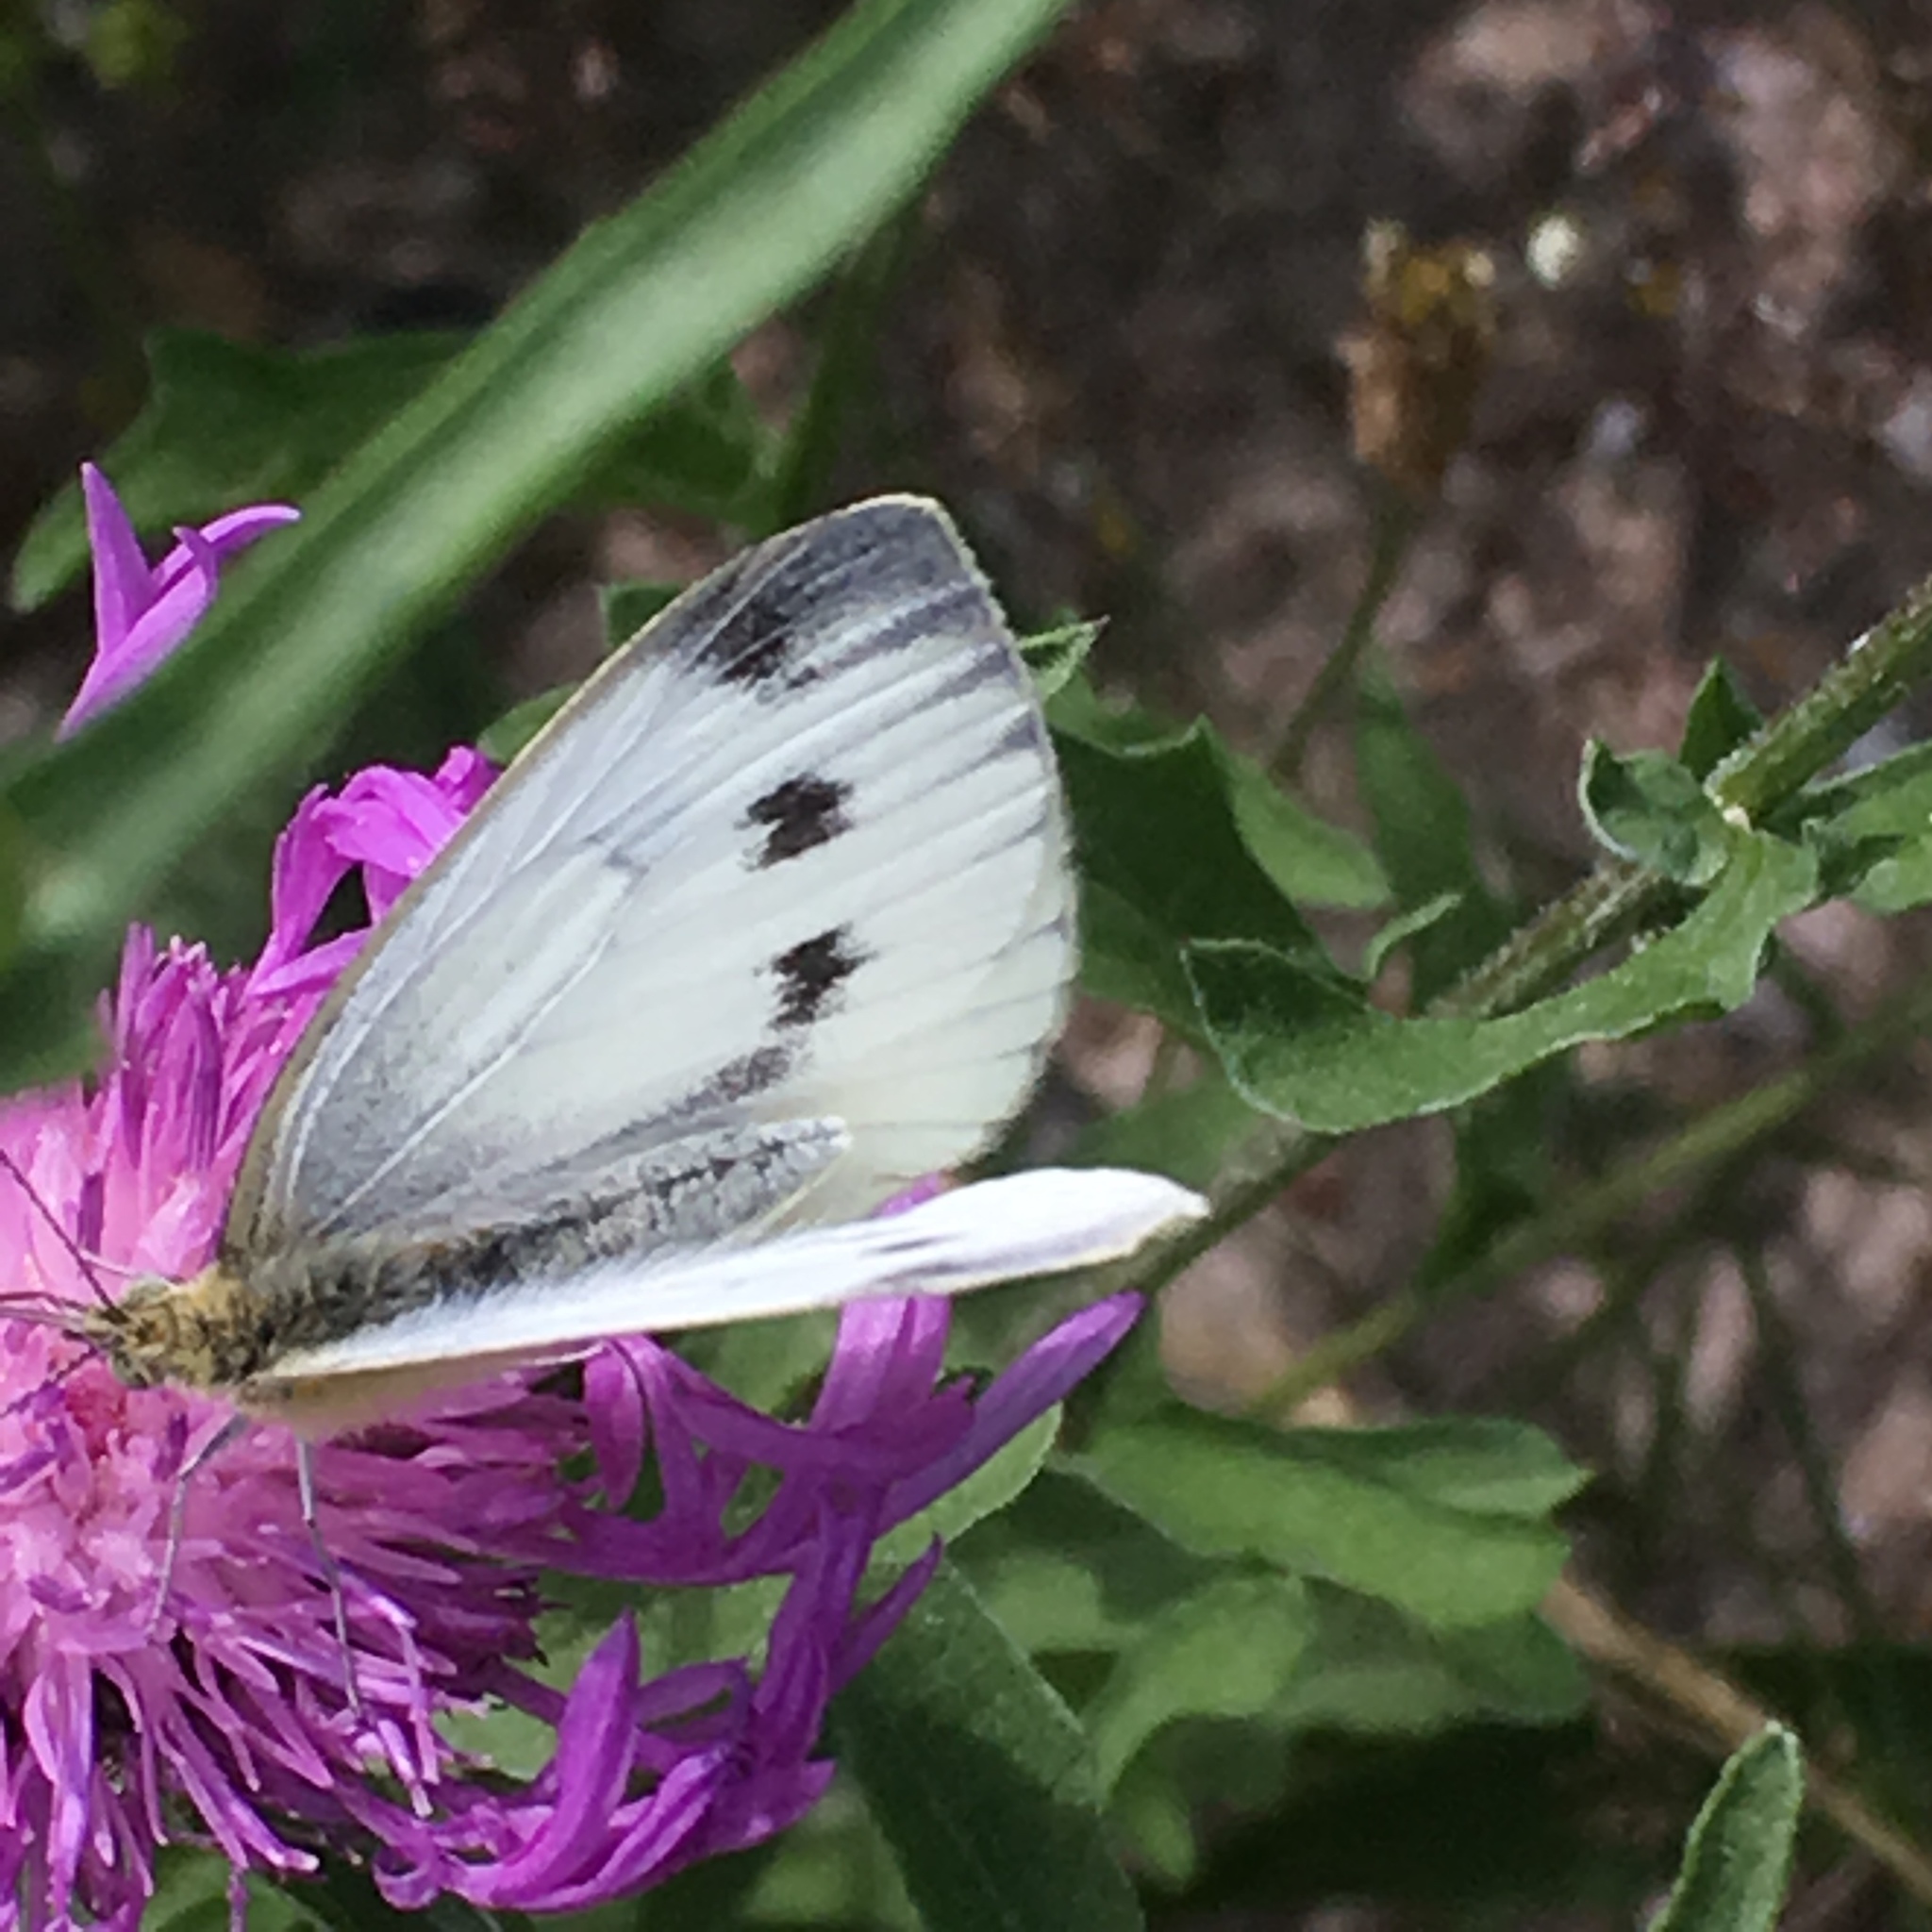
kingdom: Animalia
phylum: Arthropoda
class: Insecta
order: Lepidoptera
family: Pieridae
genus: Pieris
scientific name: Pieris napi
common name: Green-veined white
